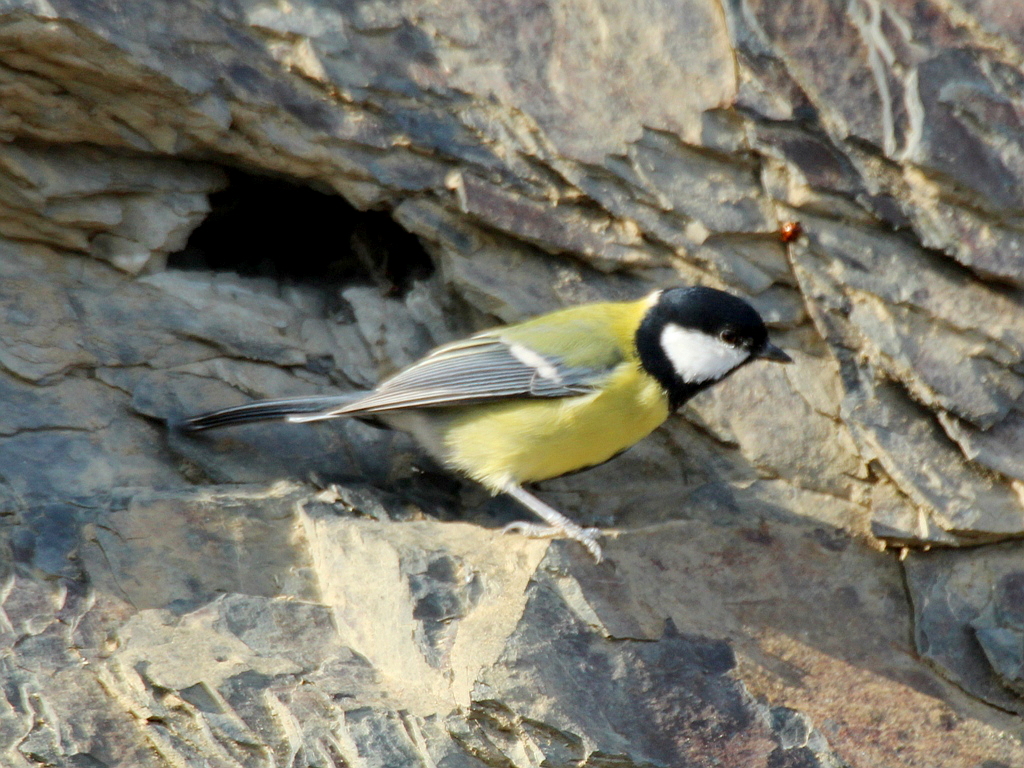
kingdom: Animalia
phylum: Chordata
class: Aves
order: Passeriformes
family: Paridae
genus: Parus
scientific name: Parus major
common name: Great tit
